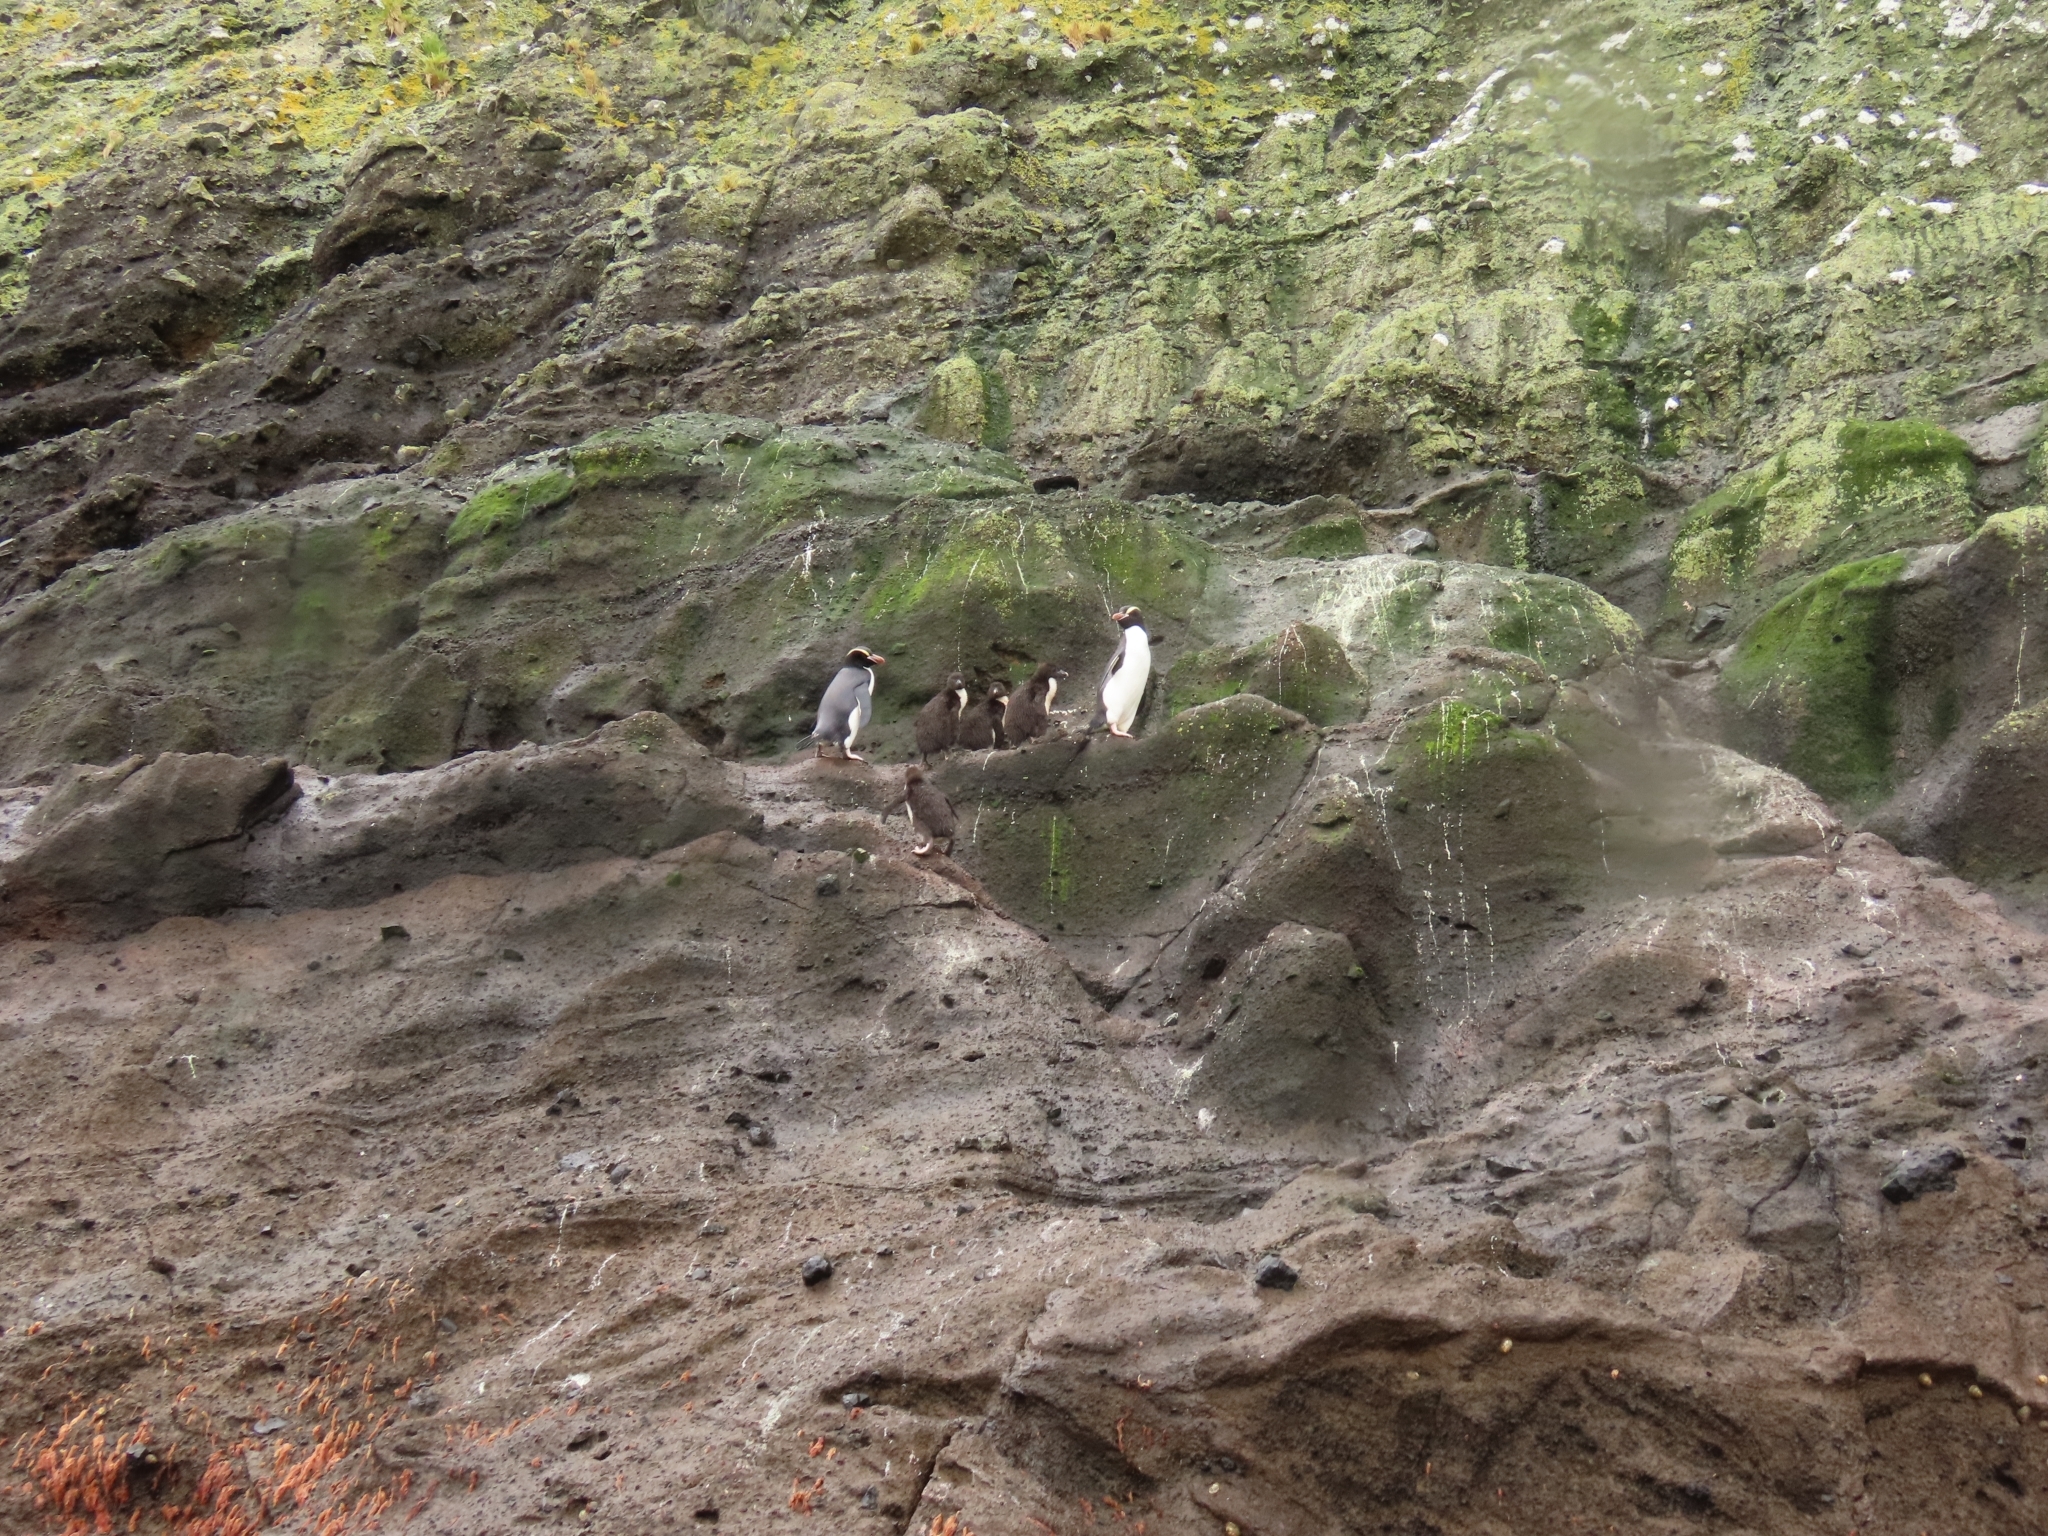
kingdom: Animalia
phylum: Chordata
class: Aves
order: Sphenisciformes
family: Spheniscidae
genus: Eudyptes
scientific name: Eudyptes sclateri
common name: Erect-crested penguin
